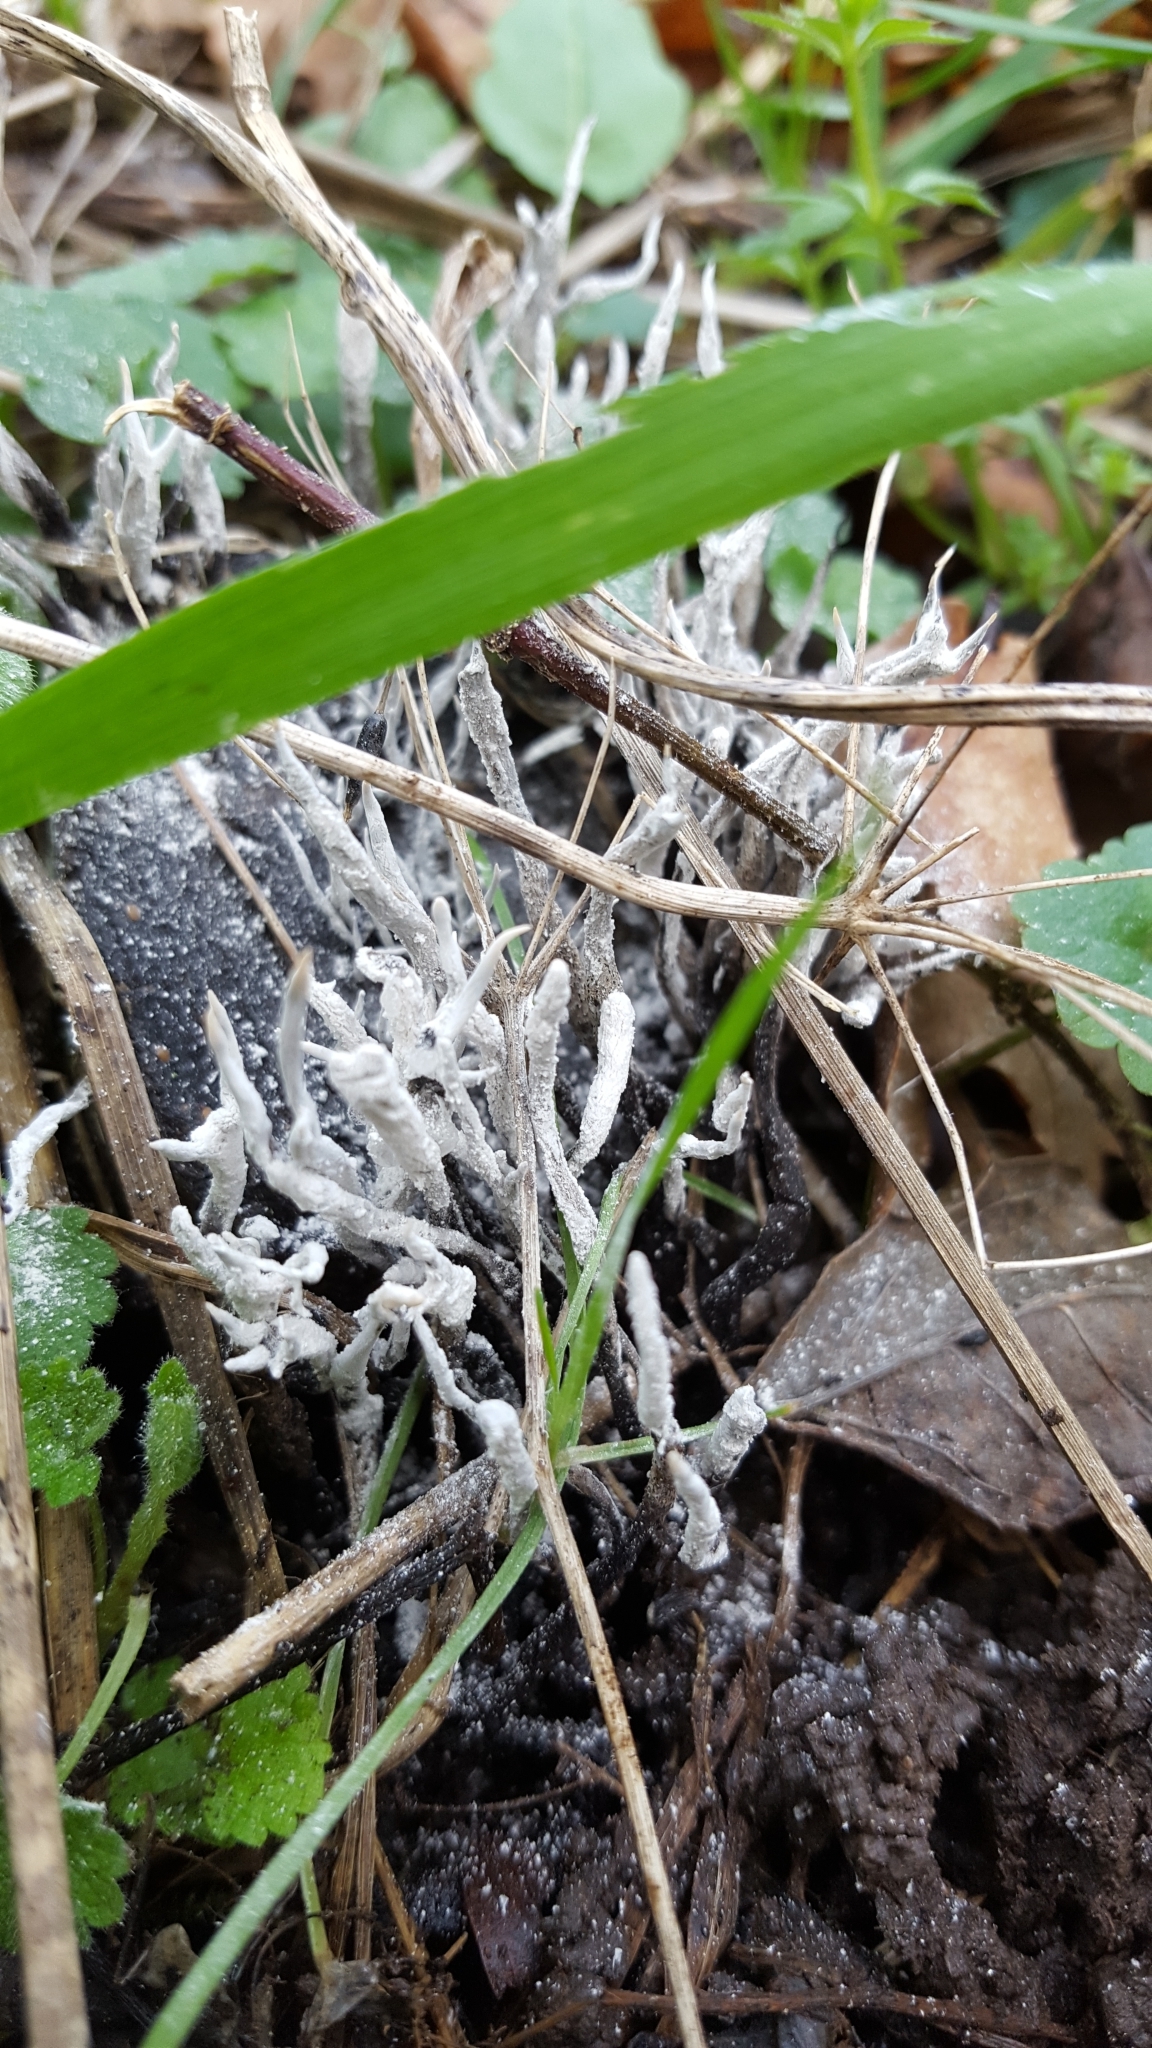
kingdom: Fungi
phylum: Ascomycota
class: Sordariomycetes
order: Xylariales
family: Xylariaceae
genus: Xylaria
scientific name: Xylaria hypoxylon
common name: Candle-snuff fungus
